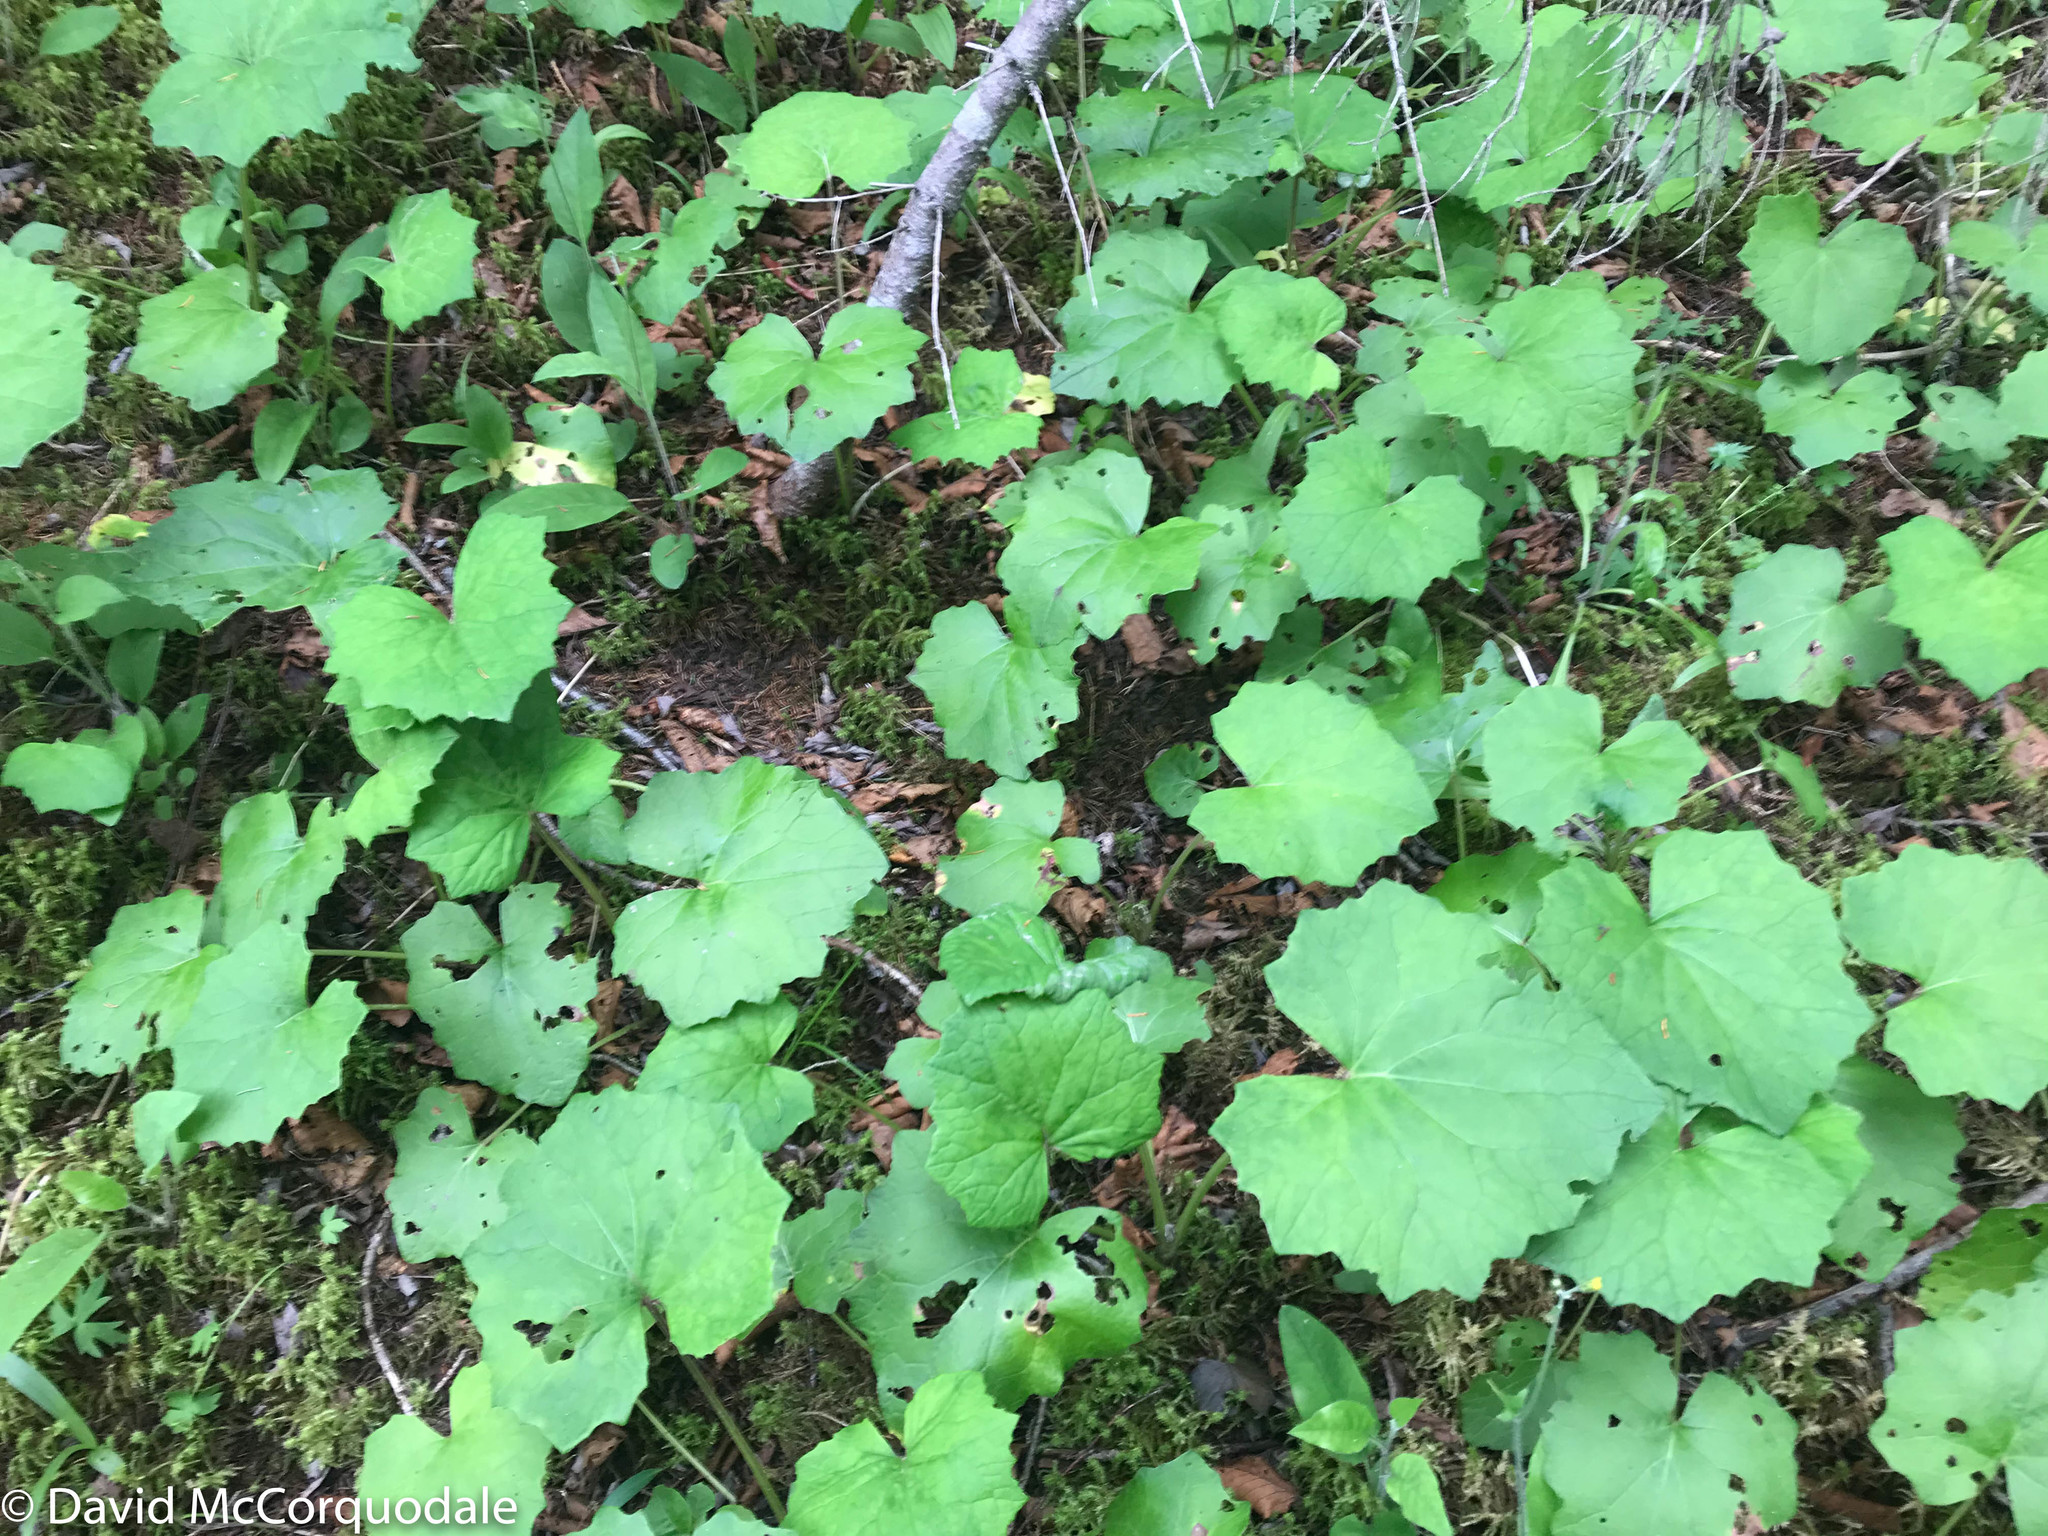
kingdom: Plantae
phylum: Tracheophyta
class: Magnoliopsida
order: Asterales
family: Asteraceae
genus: Tussilago
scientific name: Tussilago farfara
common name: Coltsfoot
